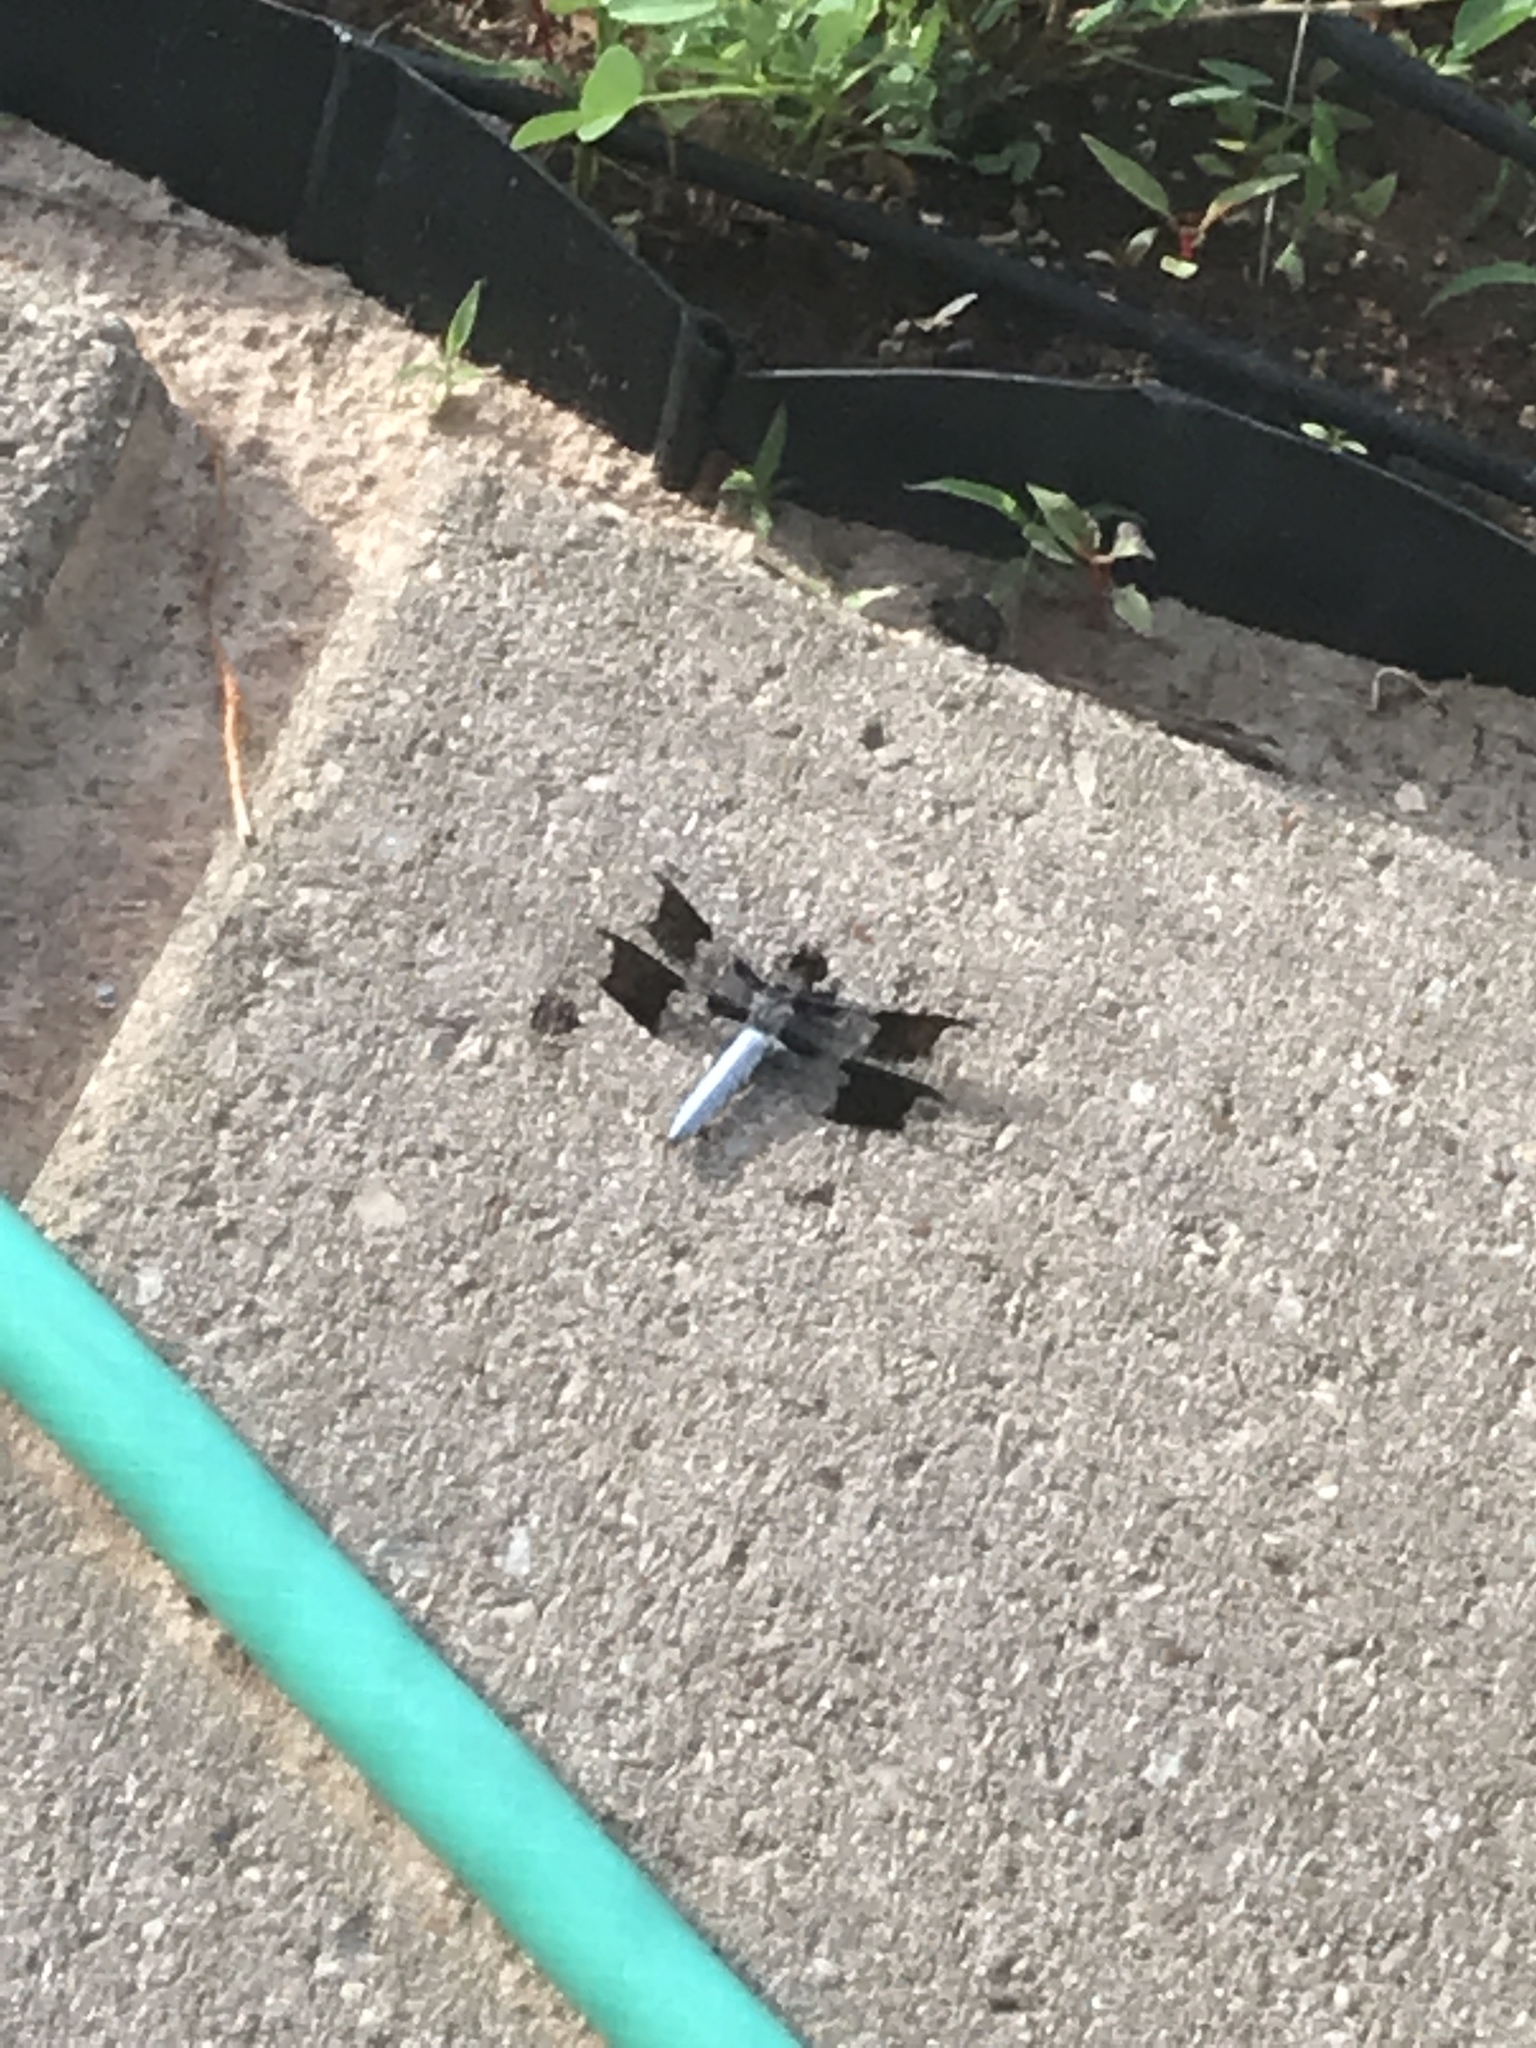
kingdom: Animalia
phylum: Arthropoda
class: Insecta
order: Odonata
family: Libellulidae
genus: Plathemis
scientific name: Plathemis lydia
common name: Common whitetail
